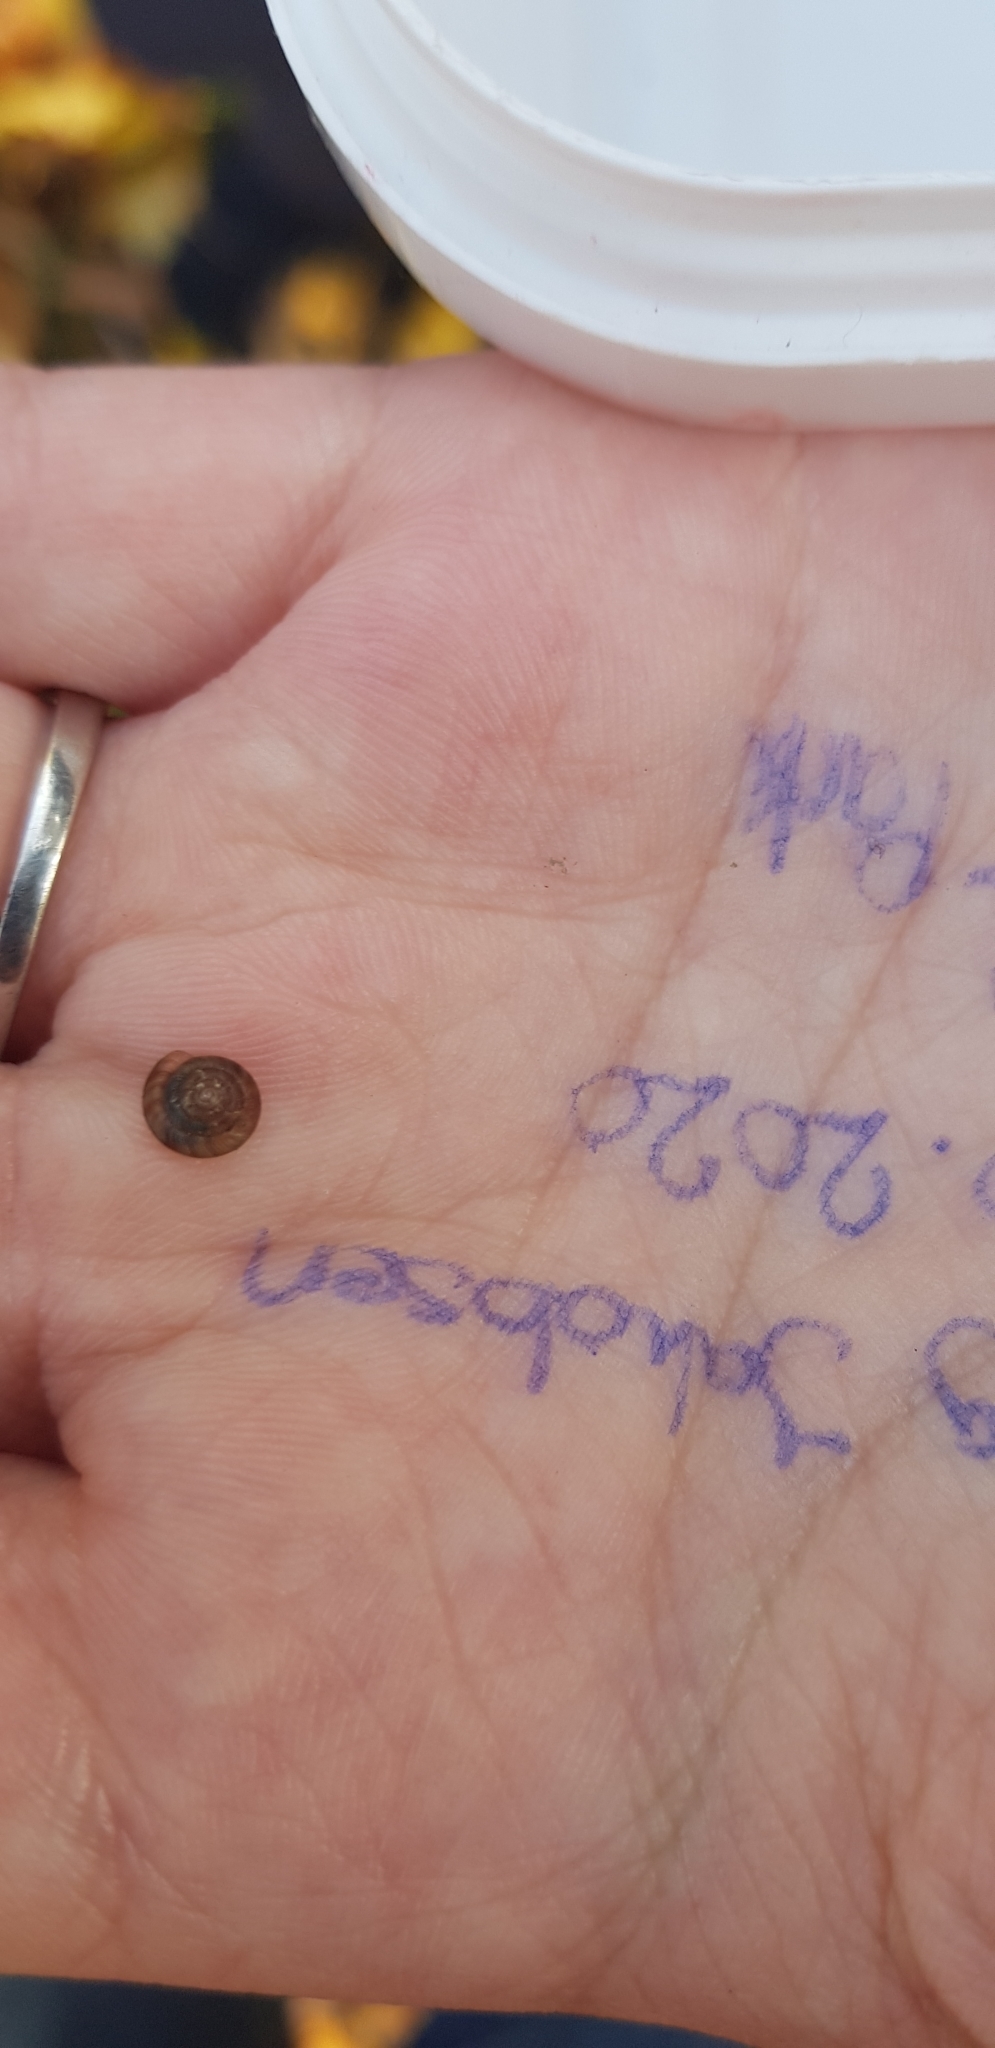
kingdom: Animalia
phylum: Mollusca
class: Gastropoda
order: Stylommatophora
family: Discidae
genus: Discus
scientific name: Discus rotundatus
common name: Rounded snail
